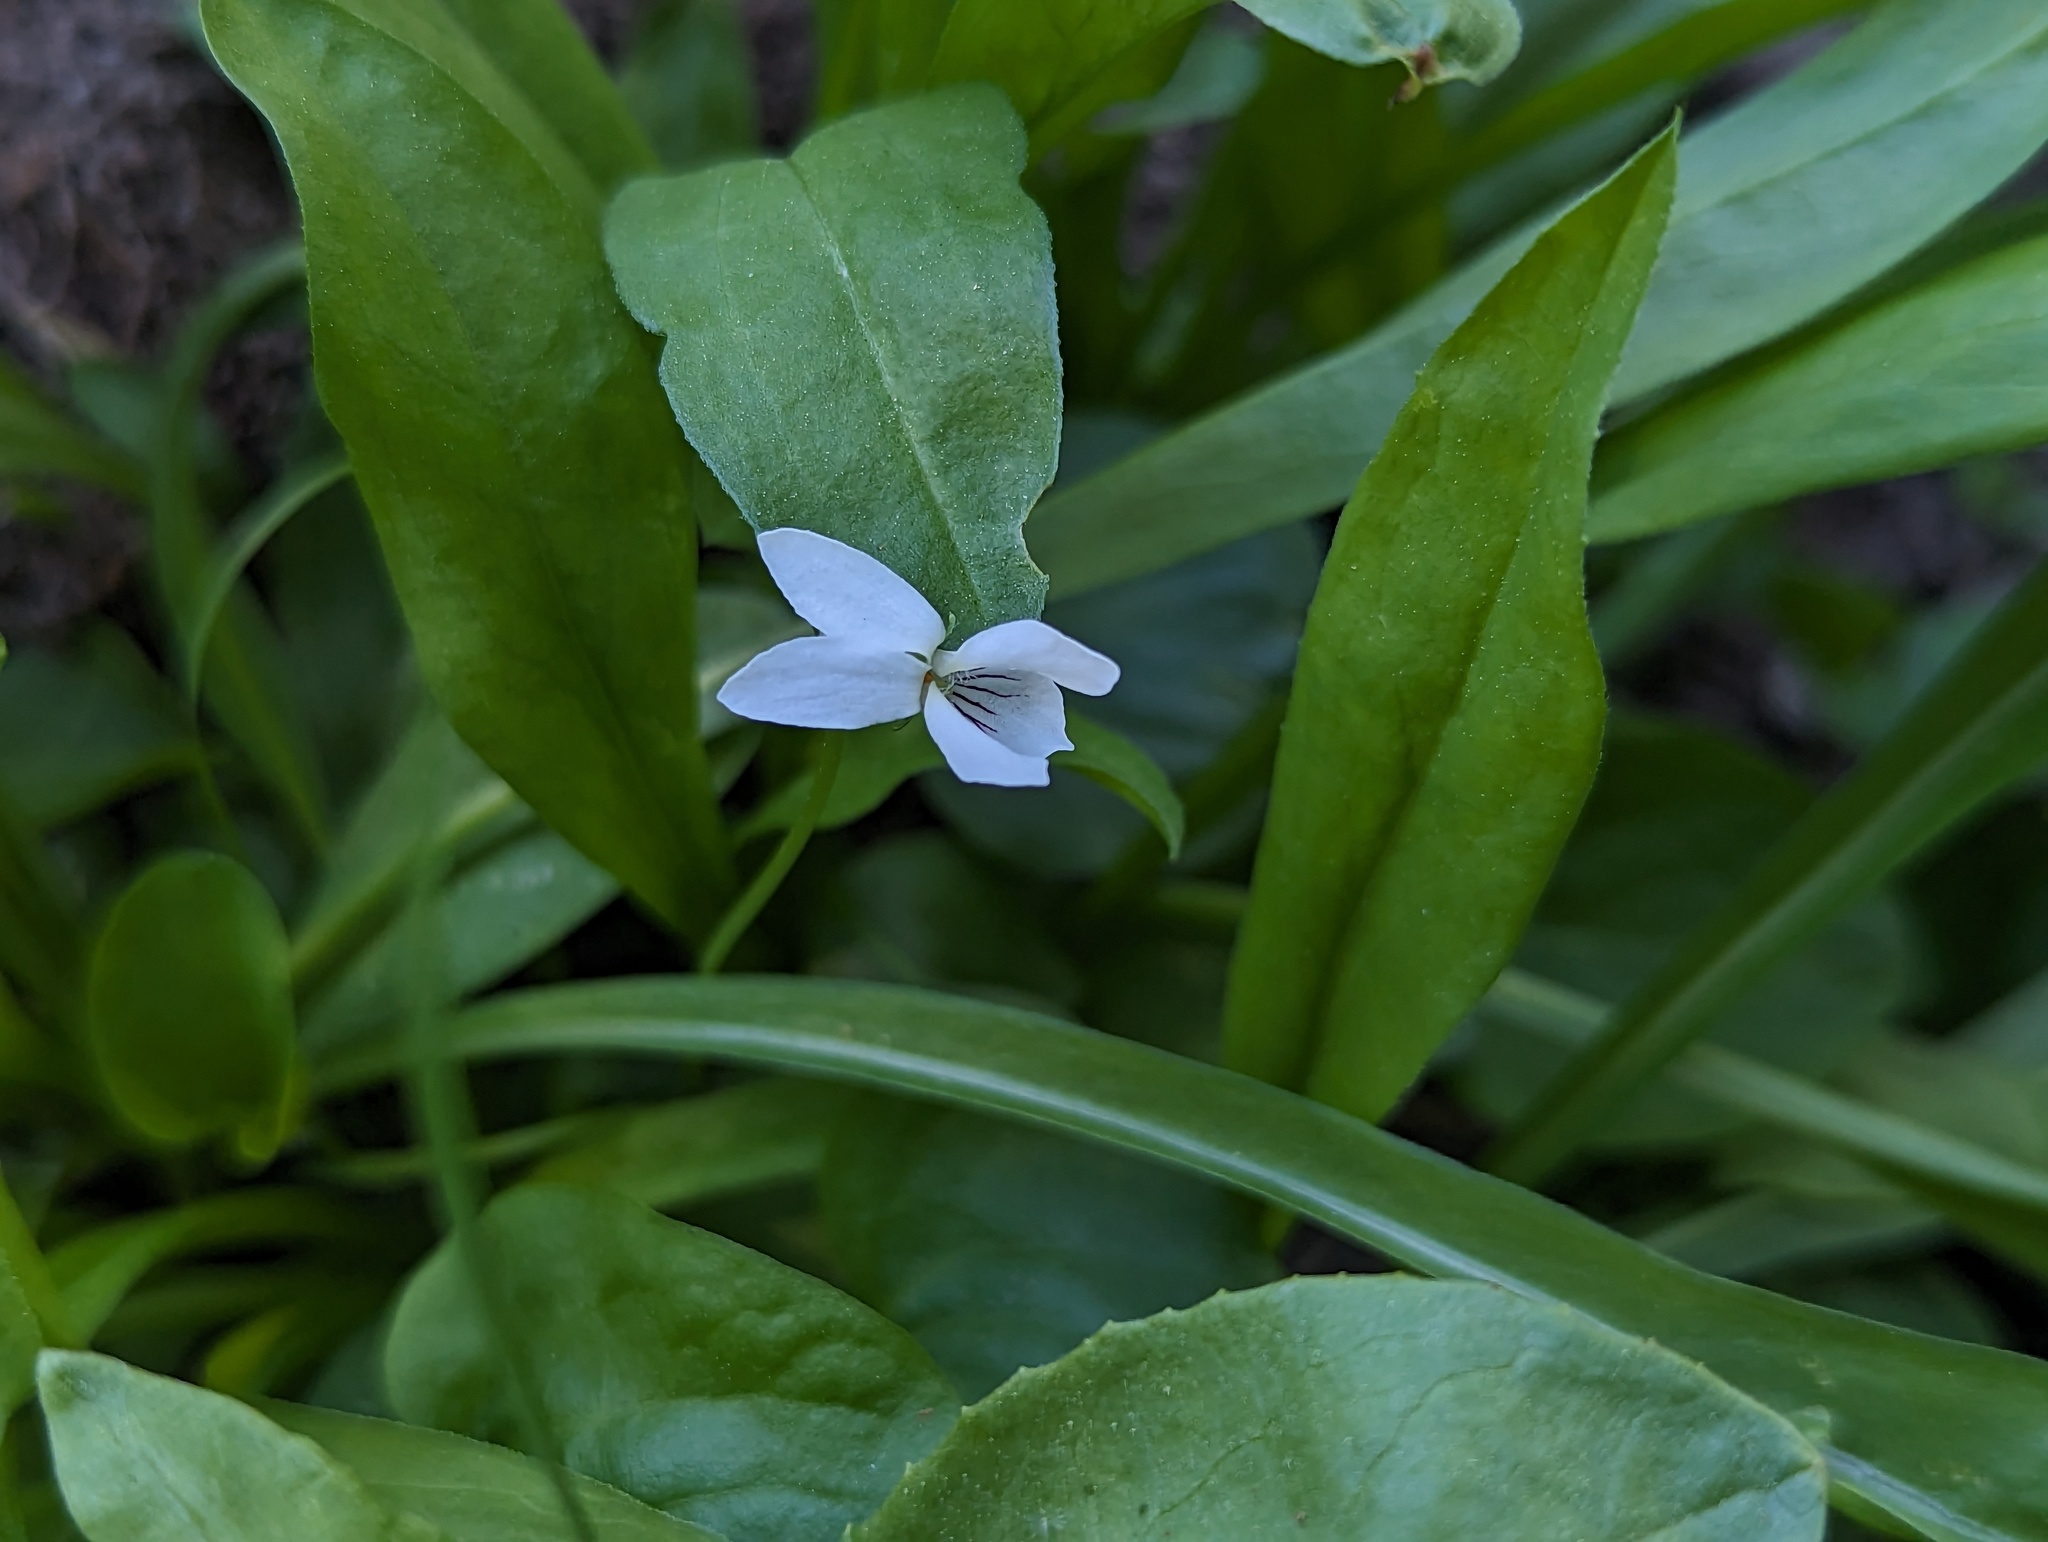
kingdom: Plantae
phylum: Tracheophyta
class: Magnoliopsida
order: Malpighiales
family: Violaceae
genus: Viola
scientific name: Viola macloskeyi
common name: Macloskey's violet
